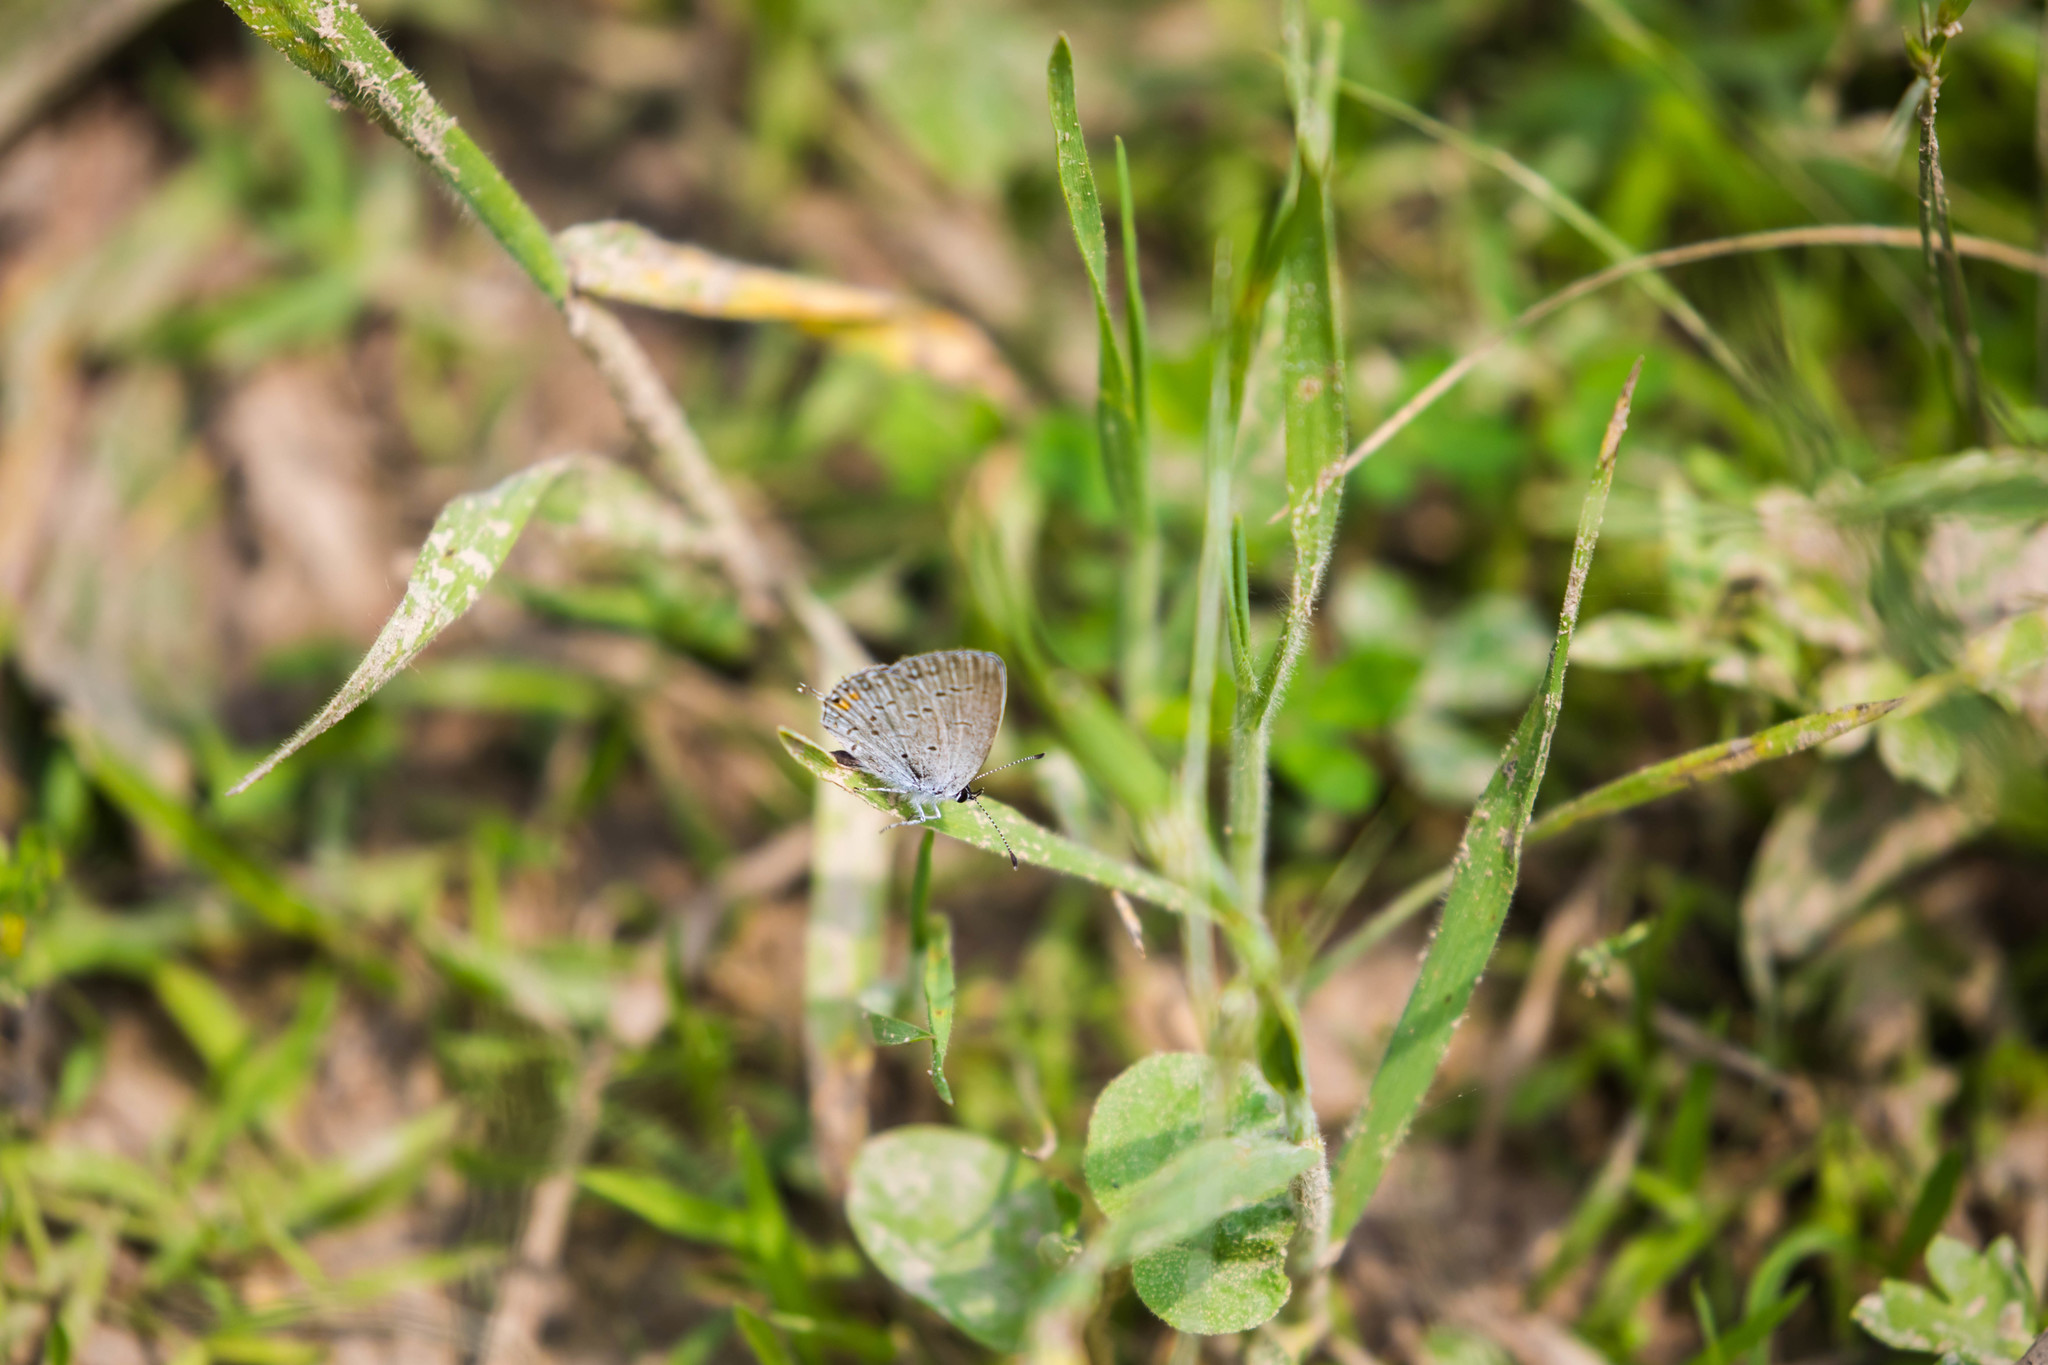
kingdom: Animalia
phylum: Arthropoda
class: Insecta
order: Lepidoptera
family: Lycaenidae
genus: Elkalyce
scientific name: Elkalyce comyntas
